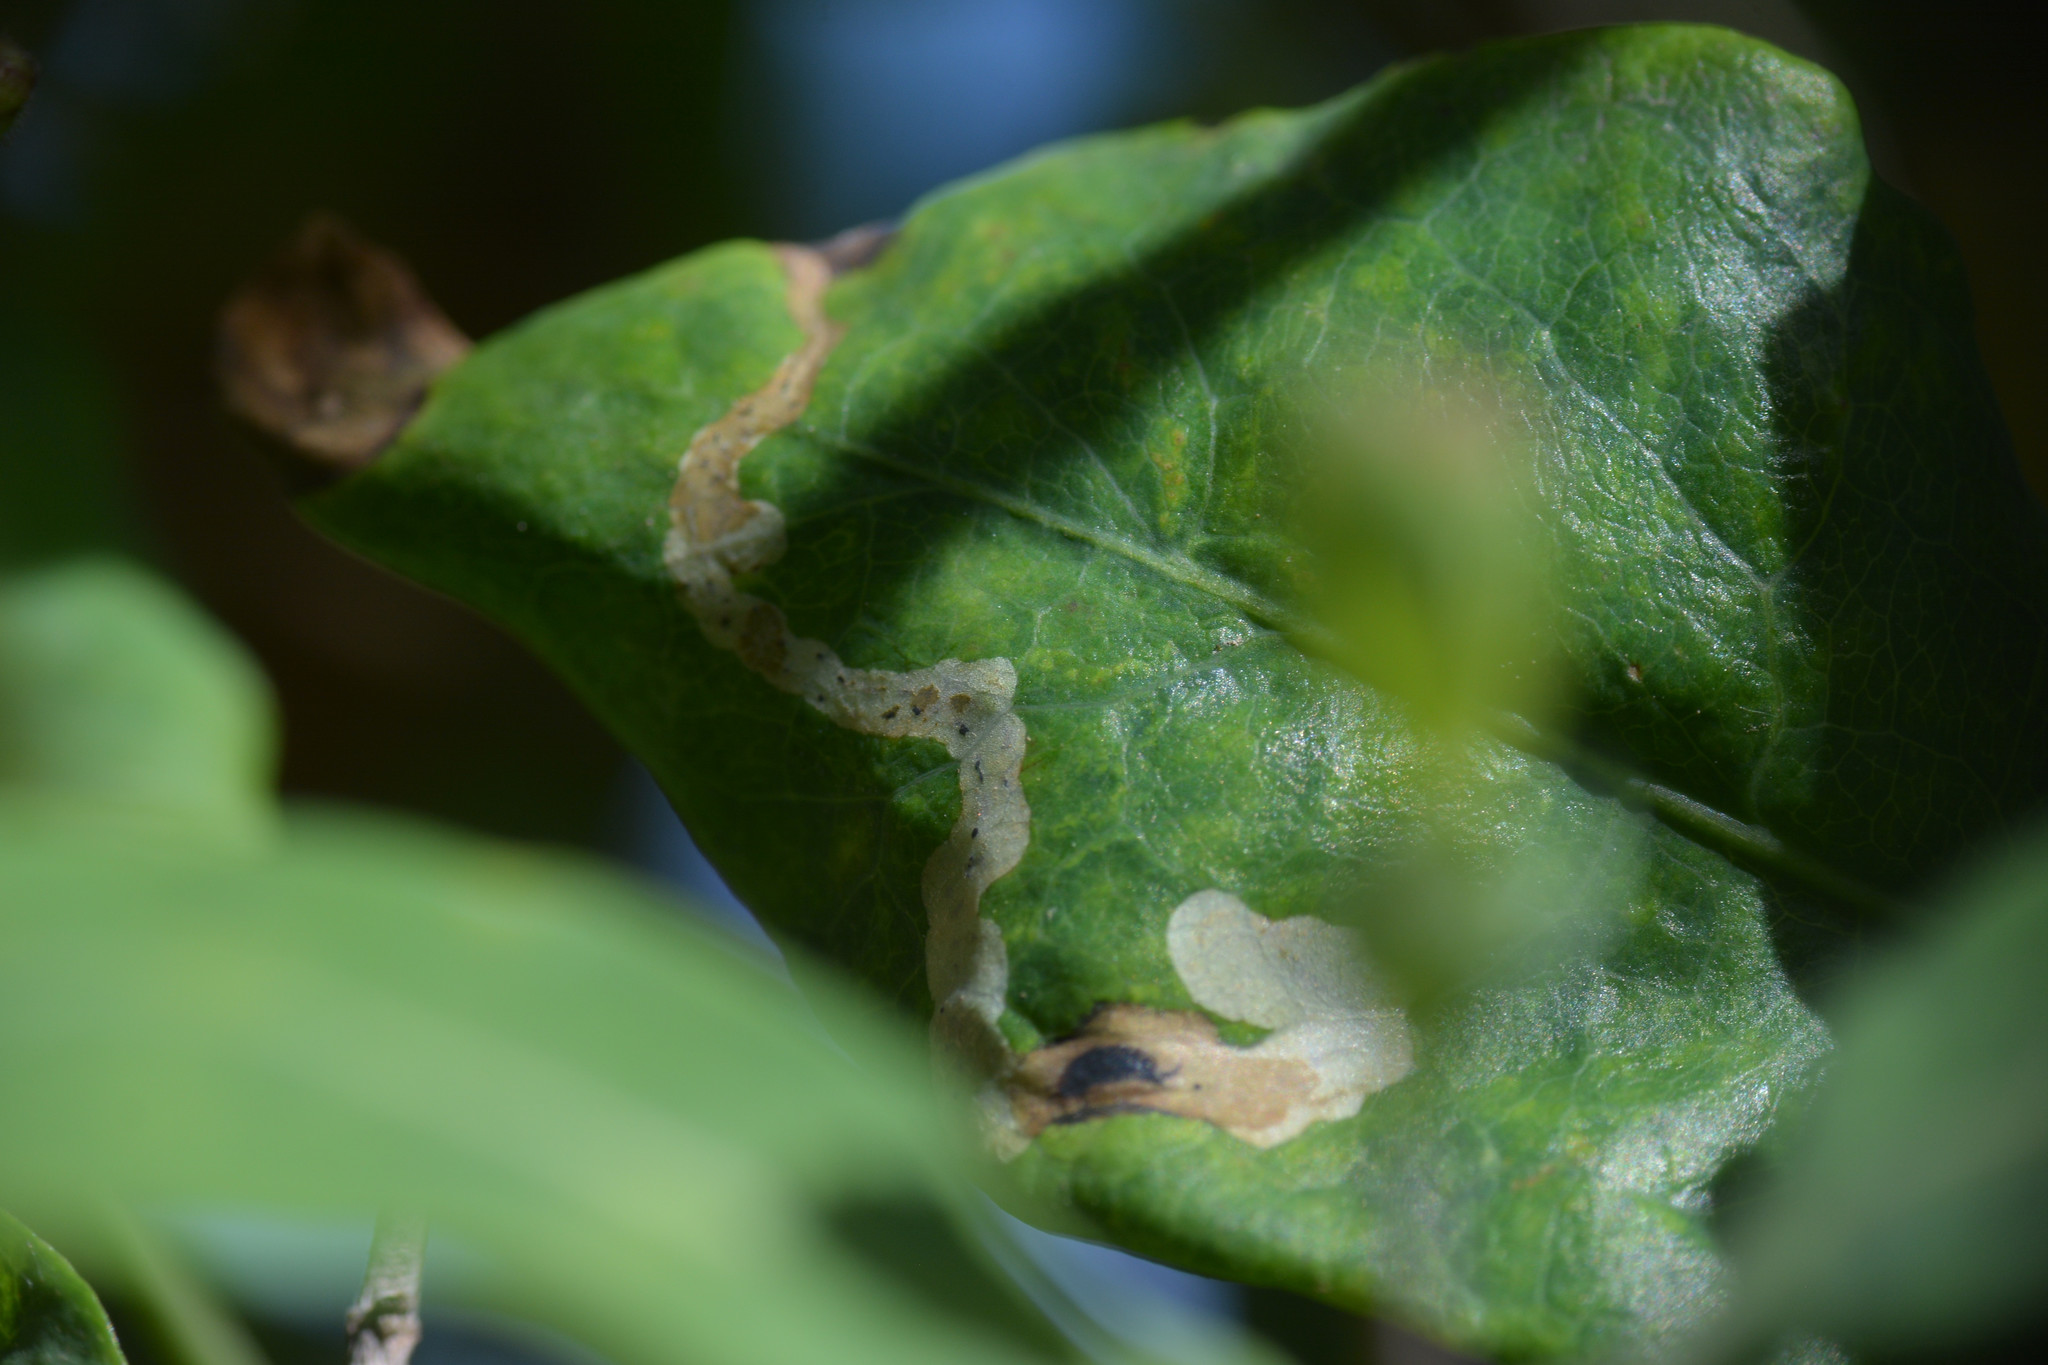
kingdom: Animalia
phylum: Arthropoda
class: Insecta
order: Diptera
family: Agromyzidae
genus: Aulagromyza
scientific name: Aulagromyza
